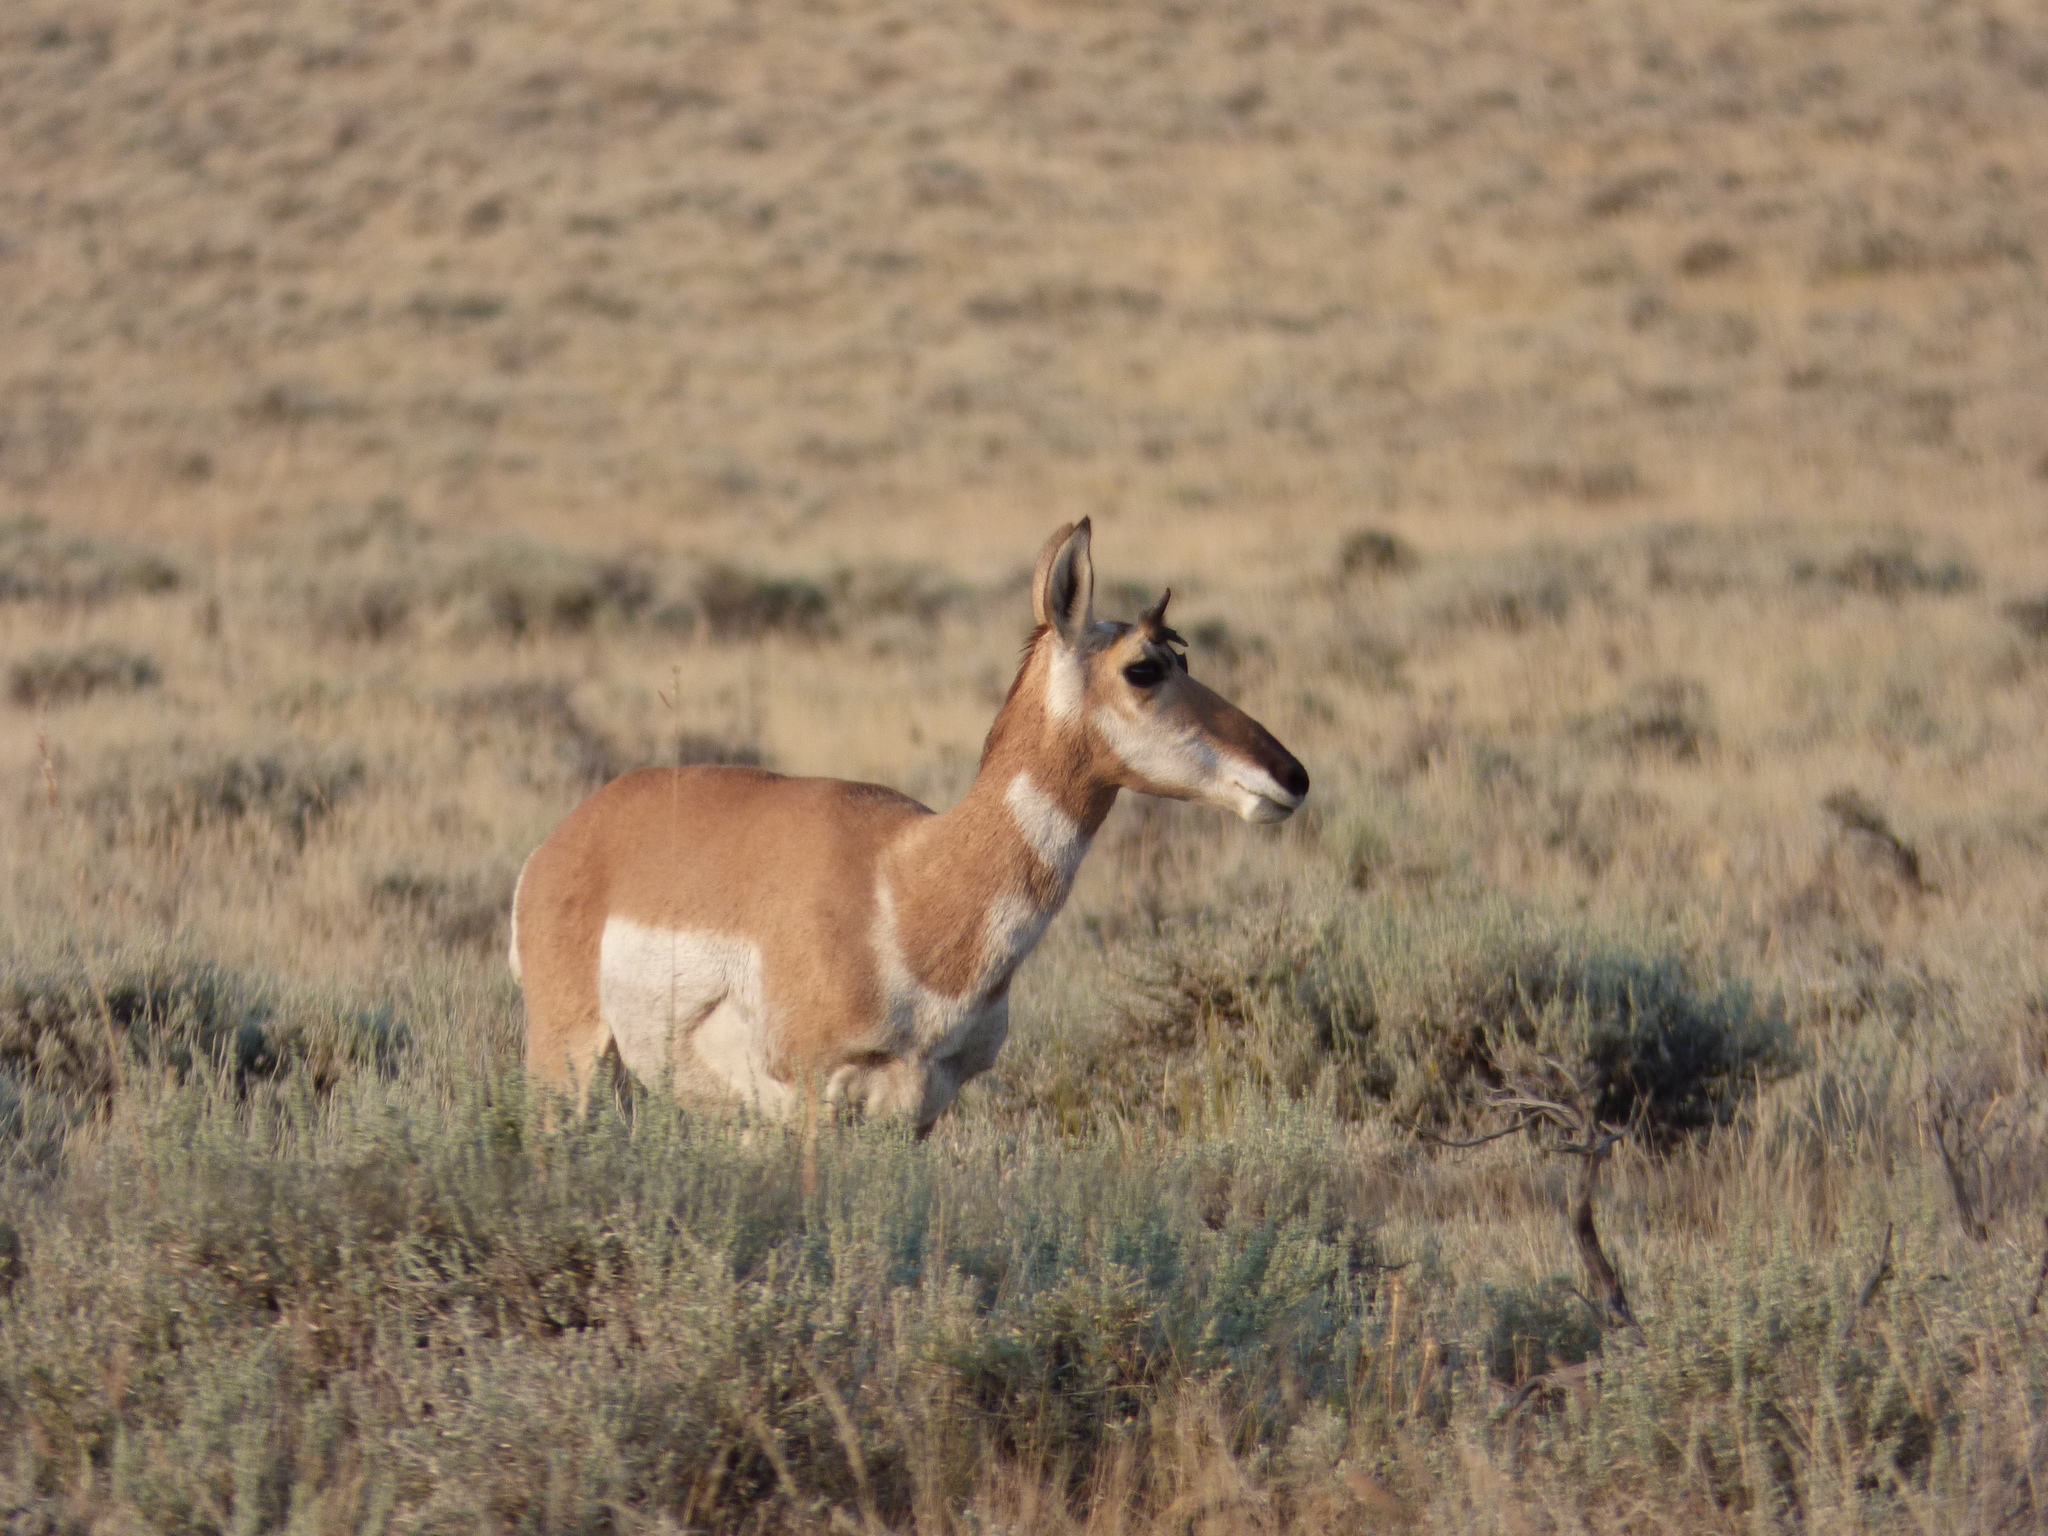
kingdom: Animalia
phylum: Chordata
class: Mammalia
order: Artiodactyla
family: Antilocapridae
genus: Antilocapra
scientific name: Antilocapra americana
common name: Pronghorn
